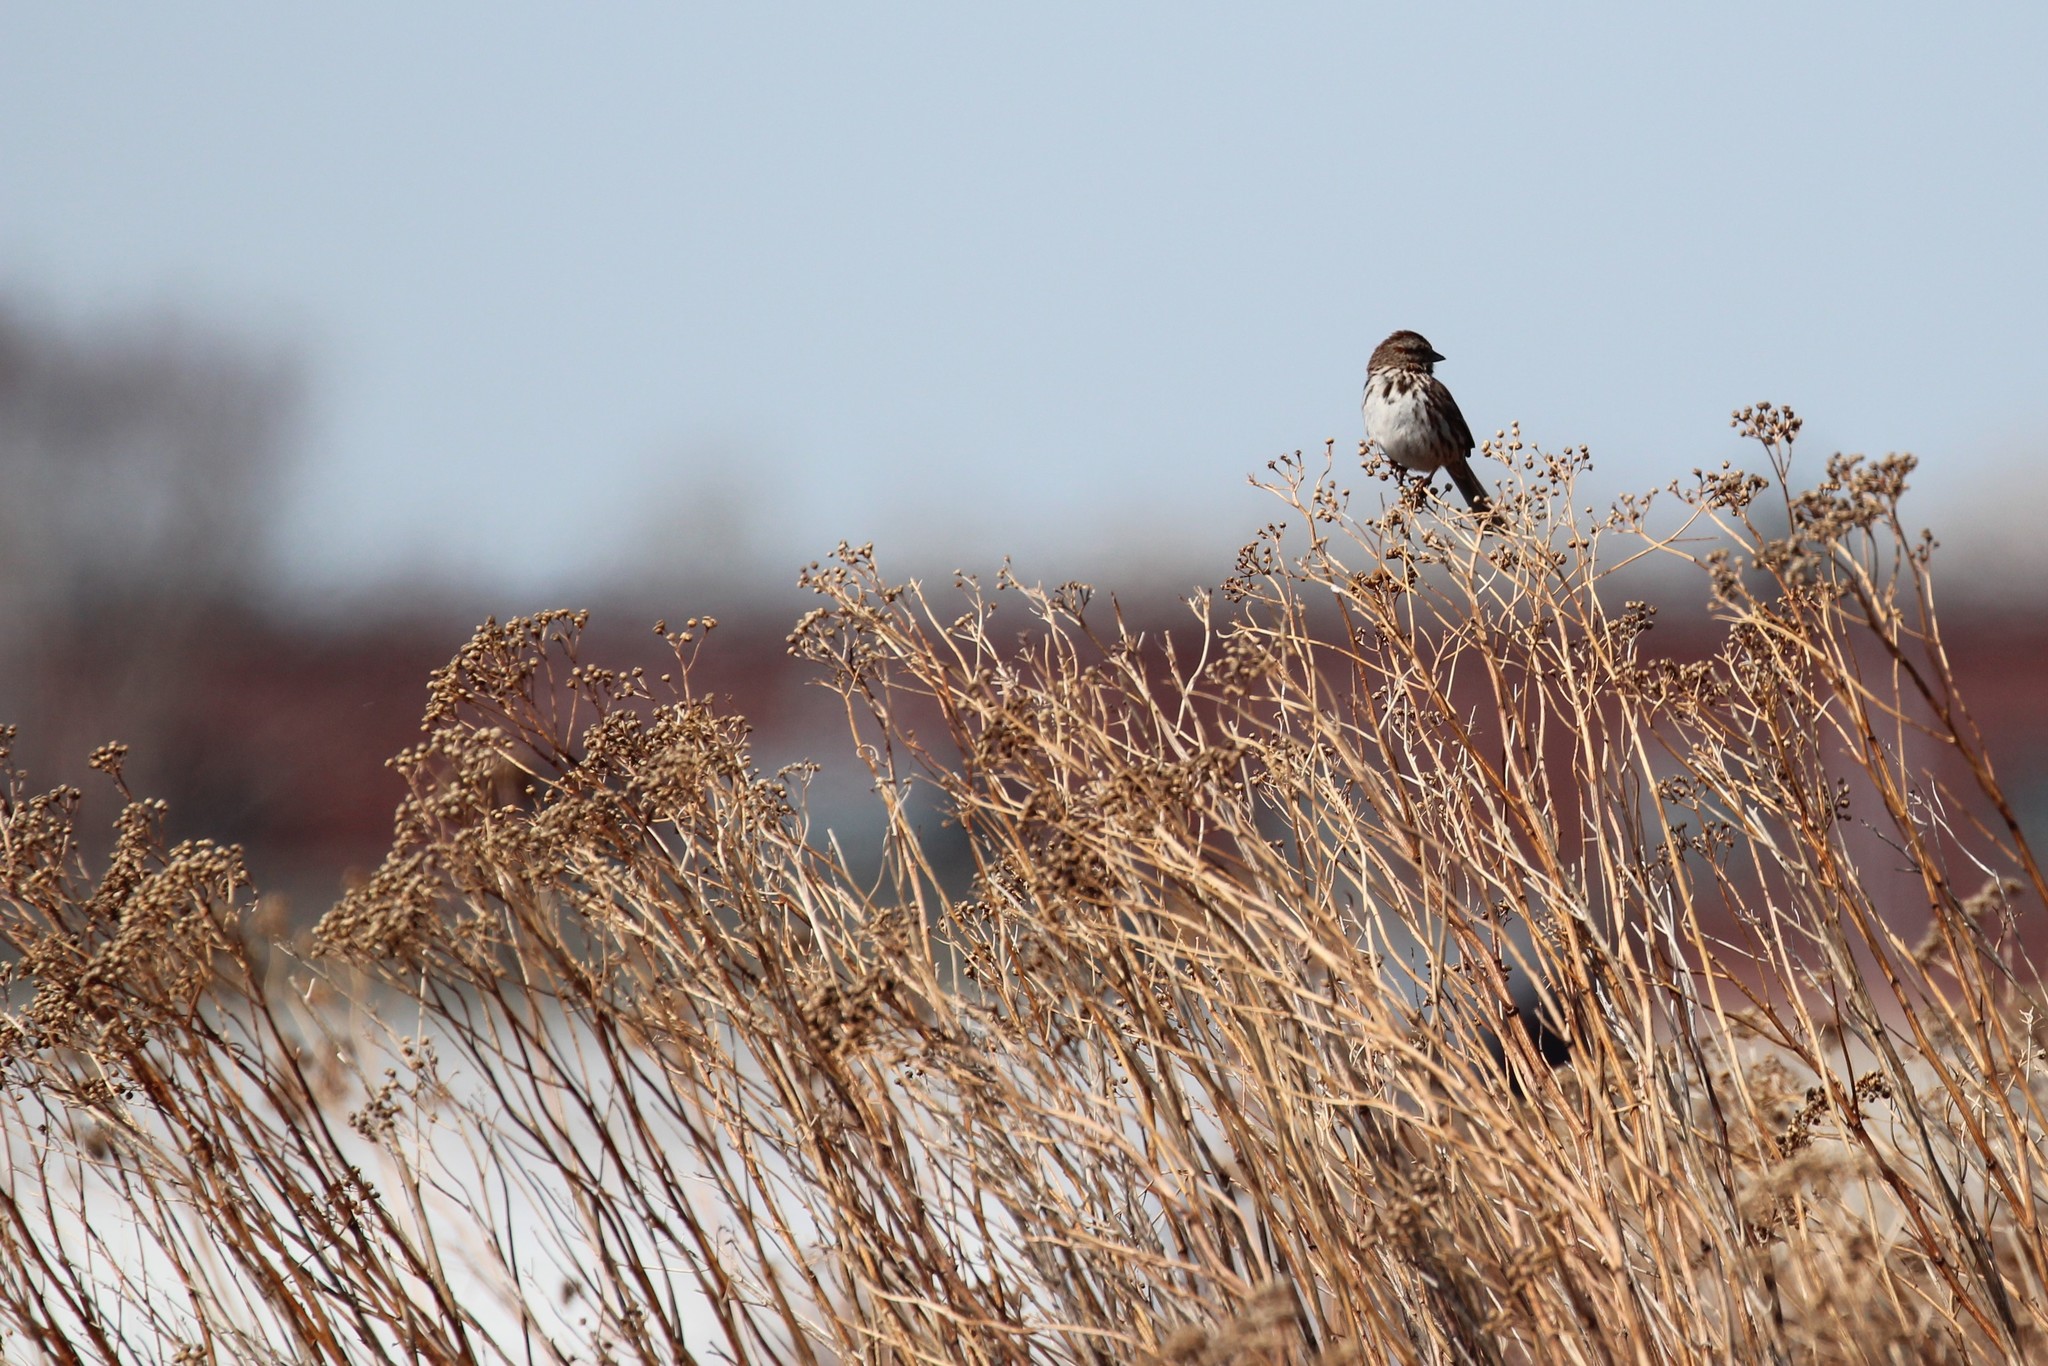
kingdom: Animalia
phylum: Chordata
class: Aves
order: Passeriformes
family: Passerellidae
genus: Melospiza
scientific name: Melospiza melodia
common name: Song sparrow
